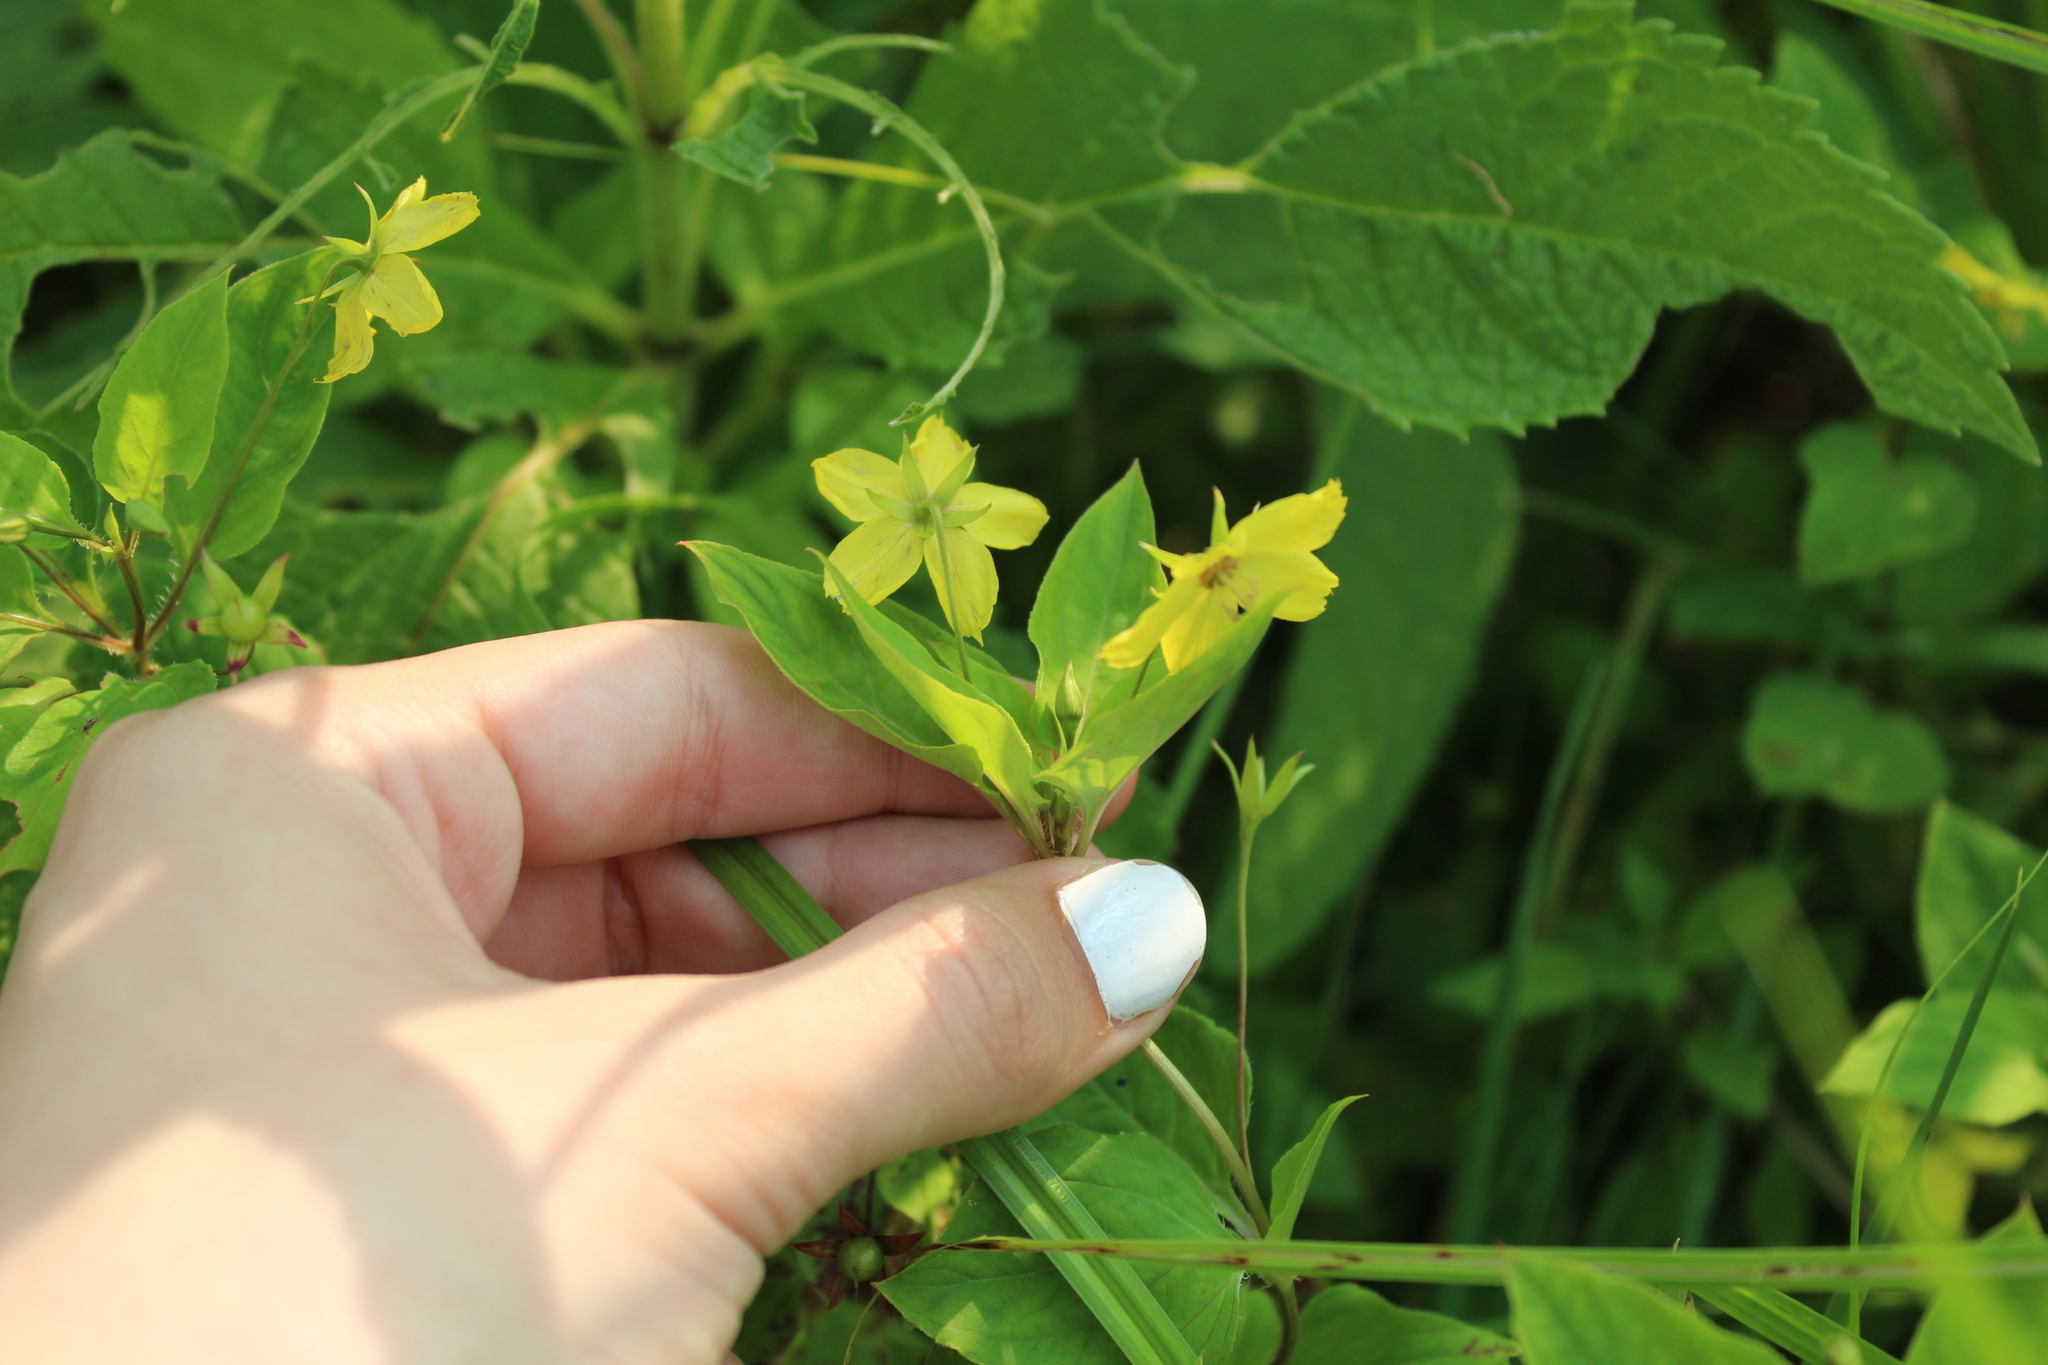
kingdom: Plantae
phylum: Tracheophyta
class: Magnoliopsida
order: Ericales
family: Primulaceae
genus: Lysimachia
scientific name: Lysimachia ciliata
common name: Fringed loosestrife
